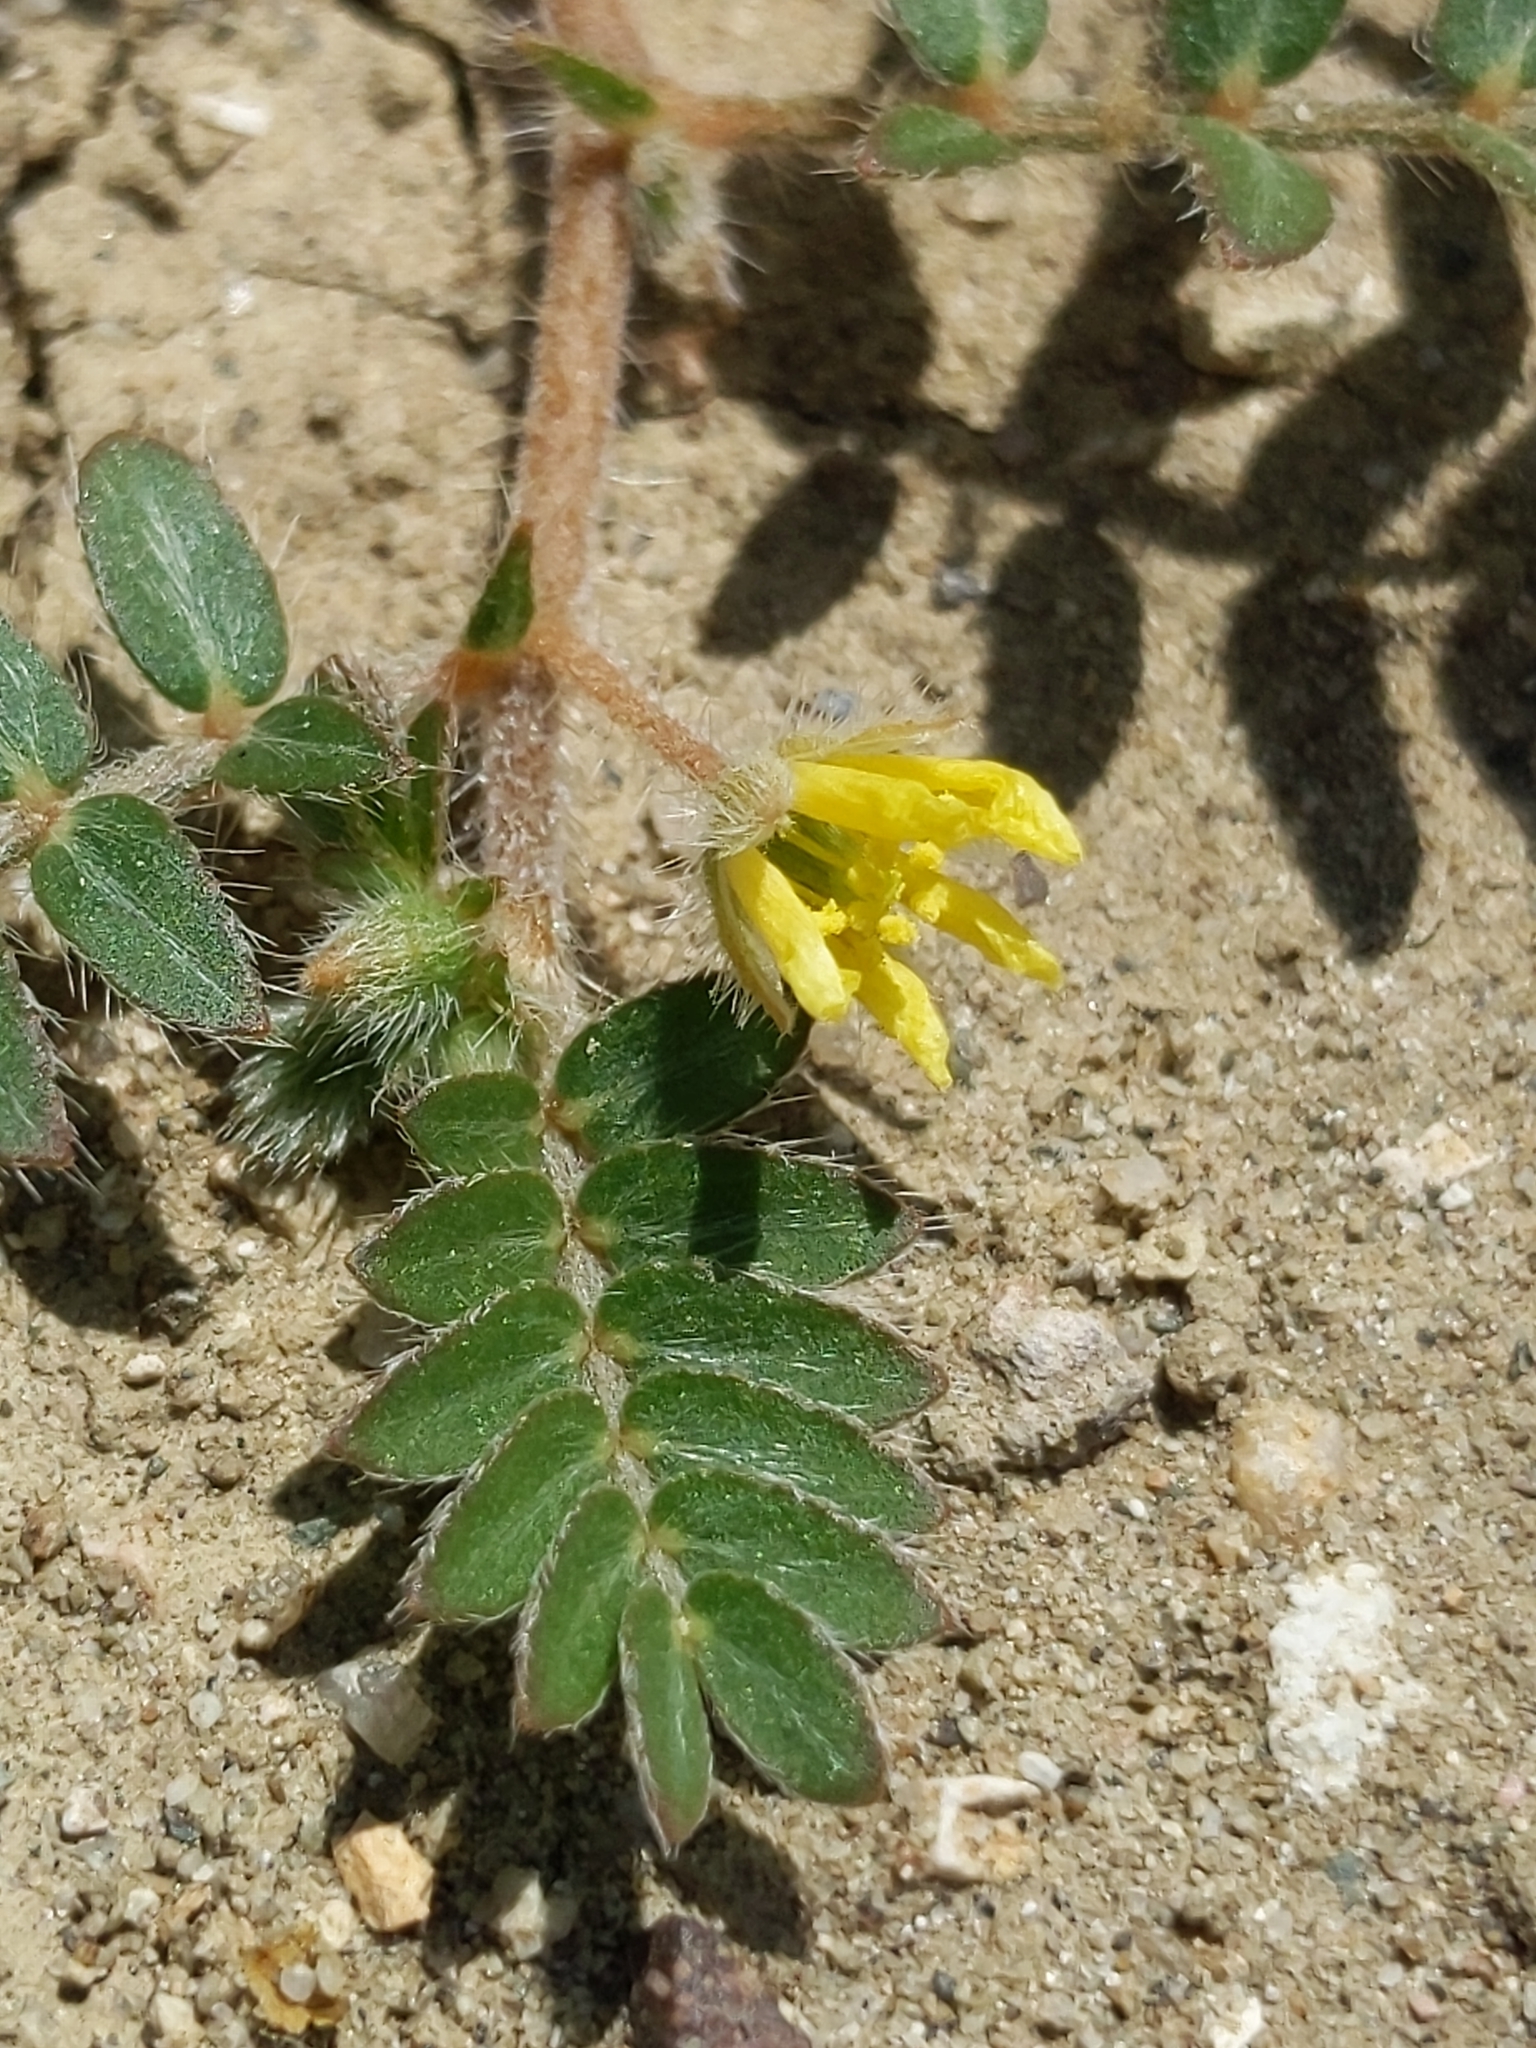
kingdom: Plantae
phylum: Tracheophyta
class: Magnoliopsida
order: Zygophyllales
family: Zygophyllaceae
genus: Tribulus
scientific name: Tribulus terrestris
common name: Puncturevine
